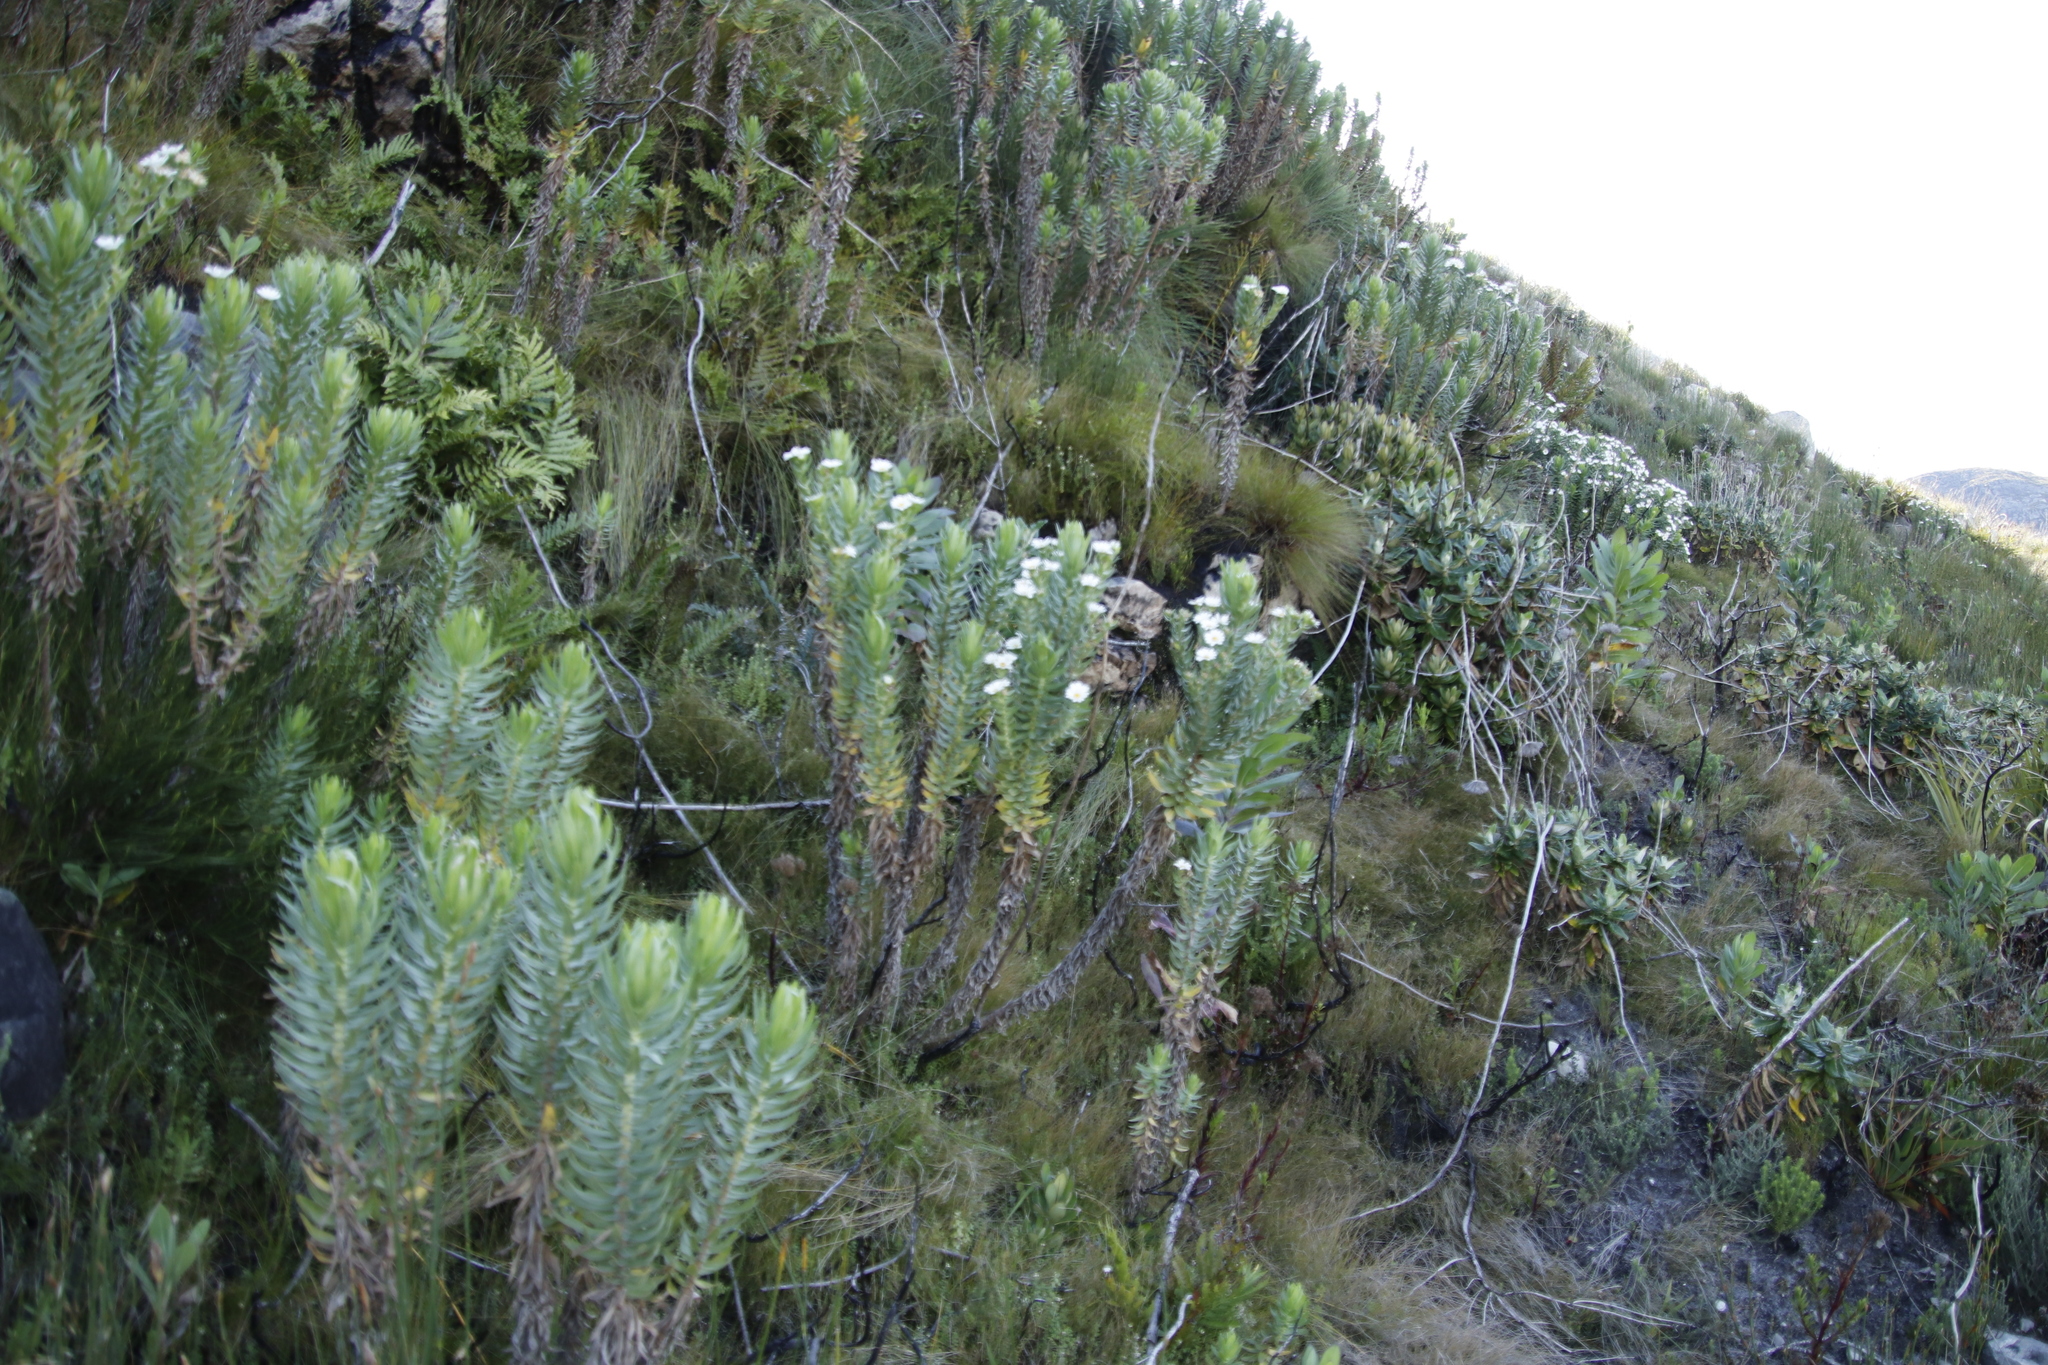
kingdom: Plantae
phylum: Tracheophyta
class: Magnoliopsida
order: Asterales
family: Asteraceae
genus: Osmitopsis
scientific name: Osmitopsis asteriscoides
